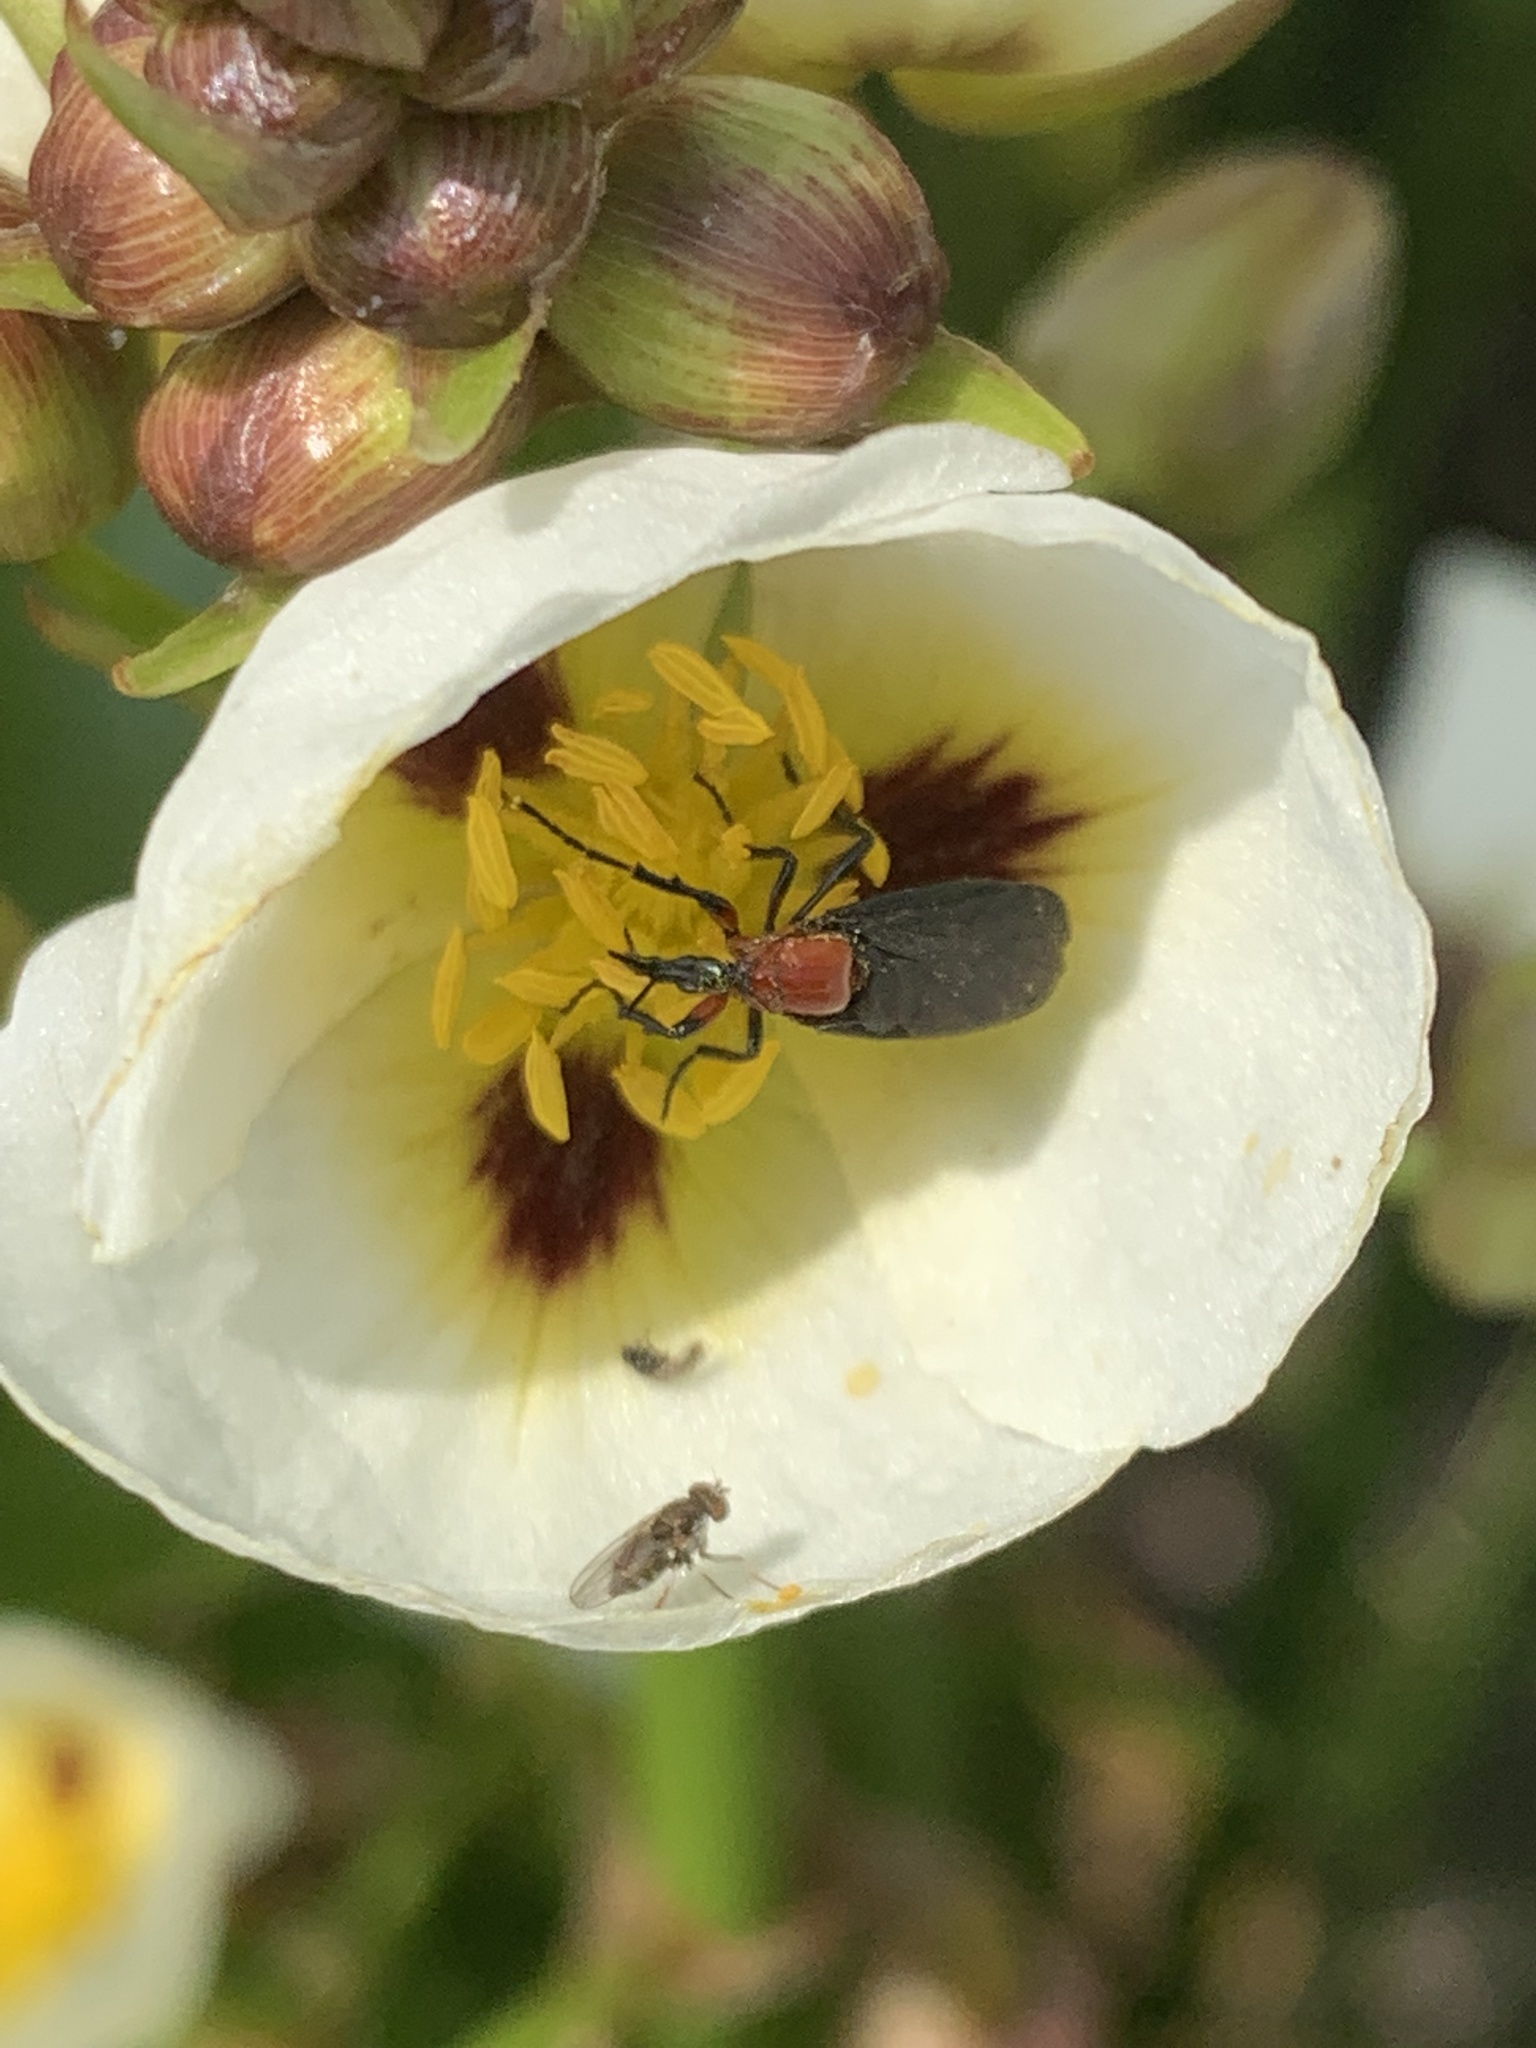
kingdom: Animalia
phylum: Arthropoda
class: Insecta
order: Diptera
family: Bibionidae
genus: Dilophus
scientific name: Dilophus pectoralis
